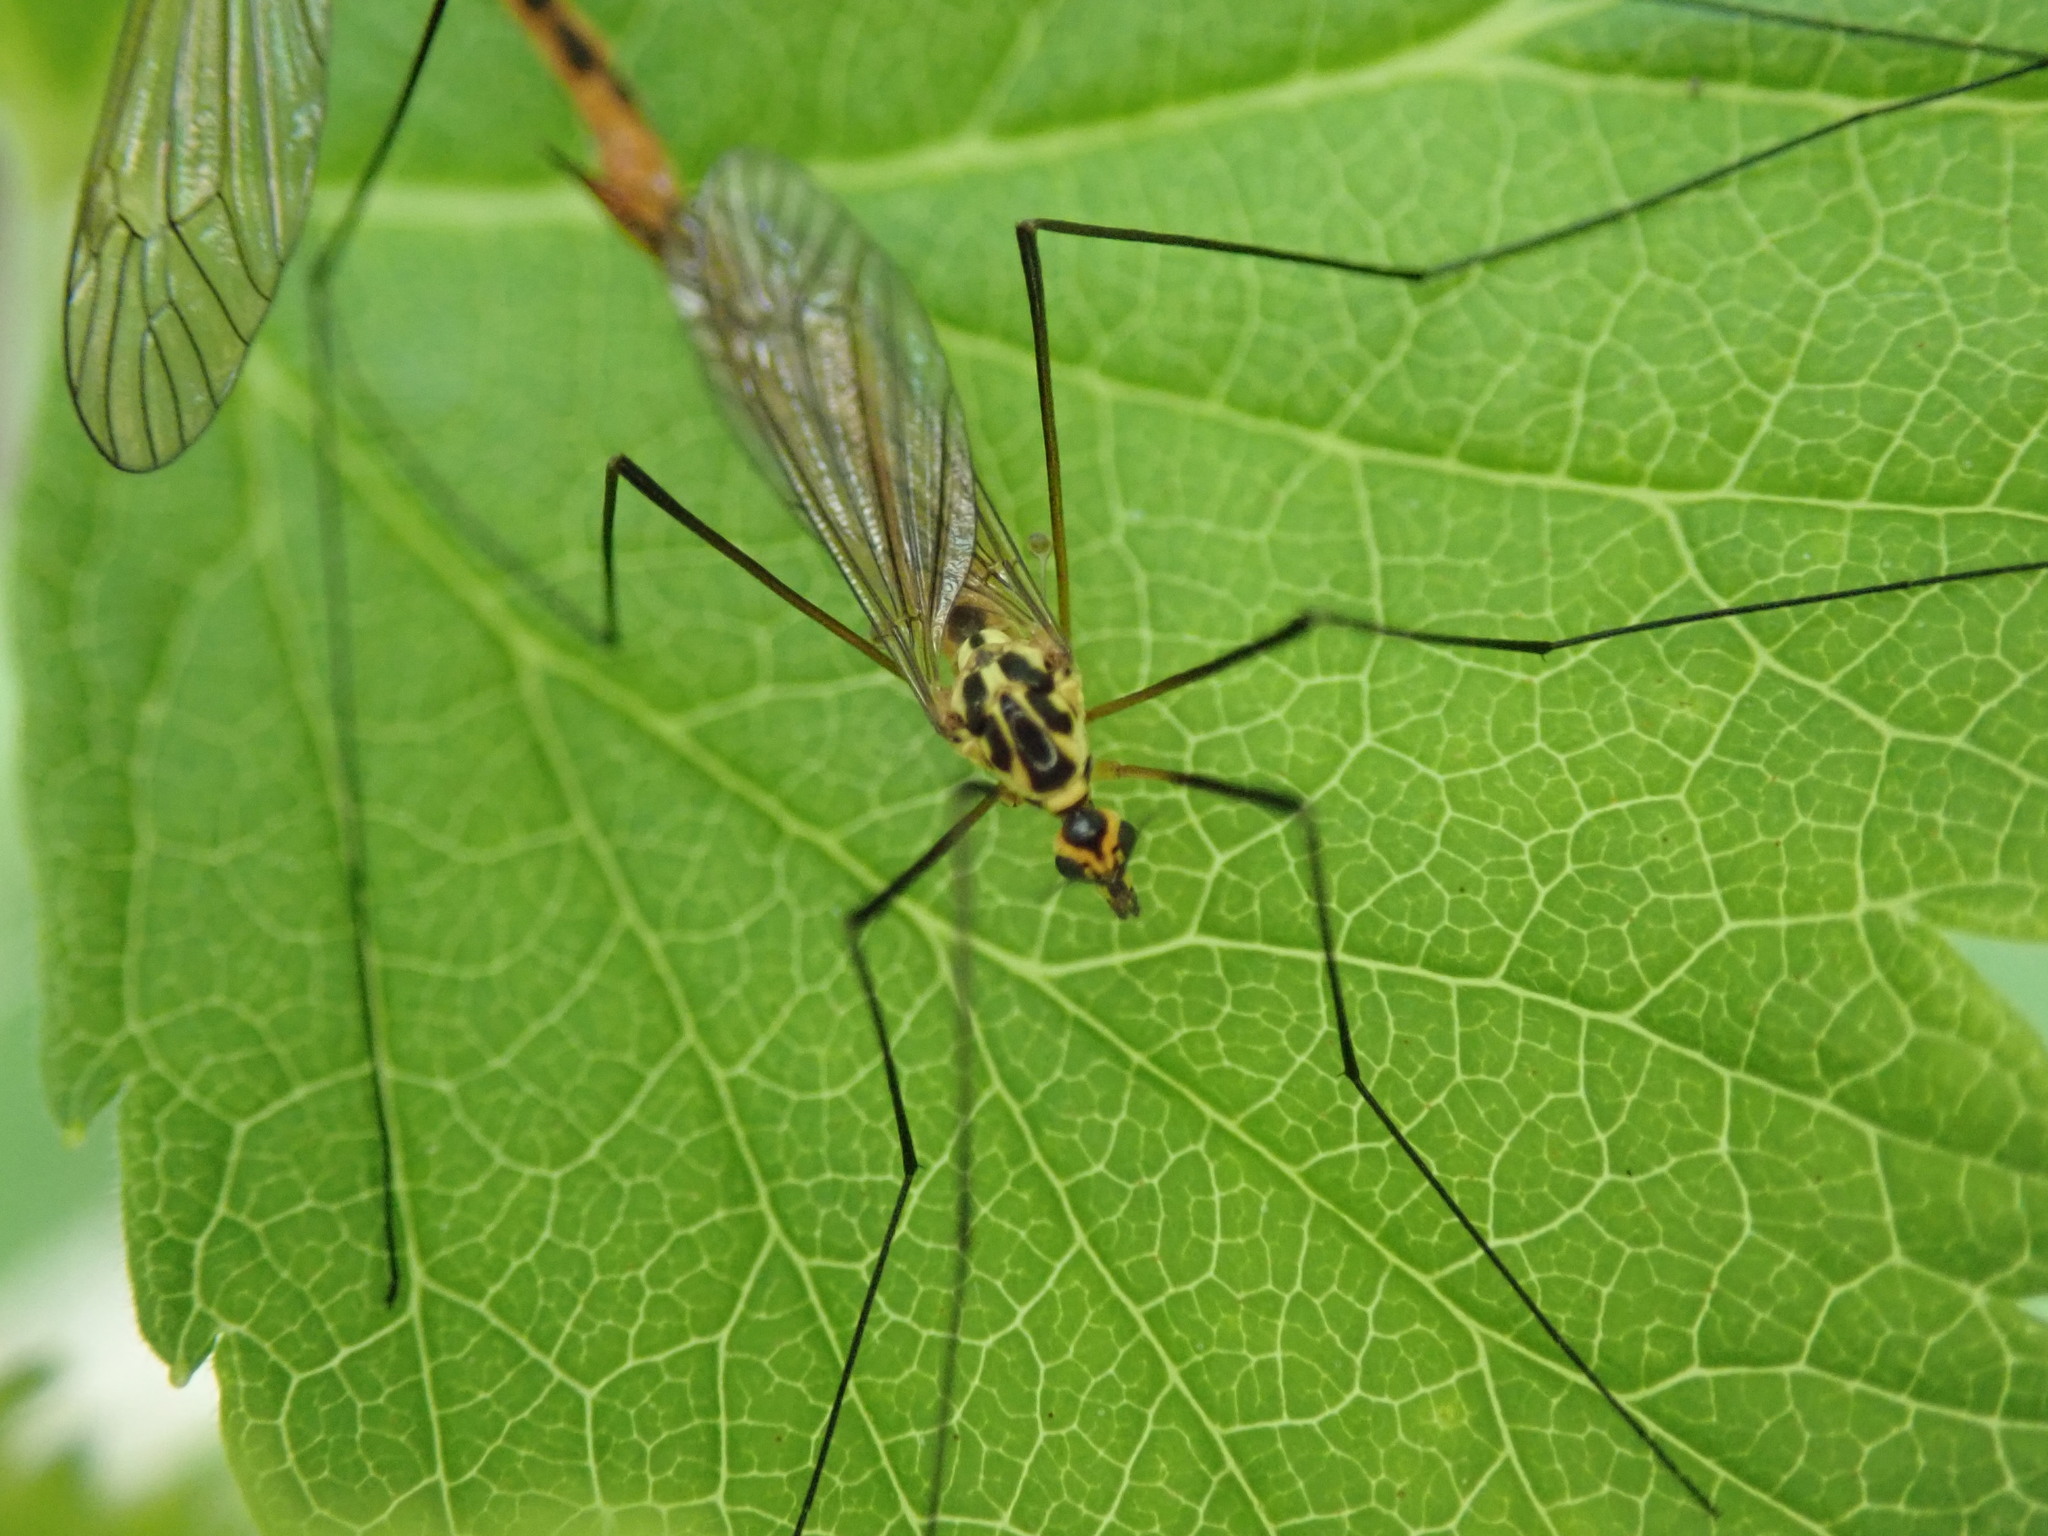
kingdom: Animalia
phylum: Arthropoda
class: Insecta
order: Diptera
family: Tipulidae
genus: Nephrotoma
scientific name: Nephrotoma flavescens
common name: Tiger cranefly
